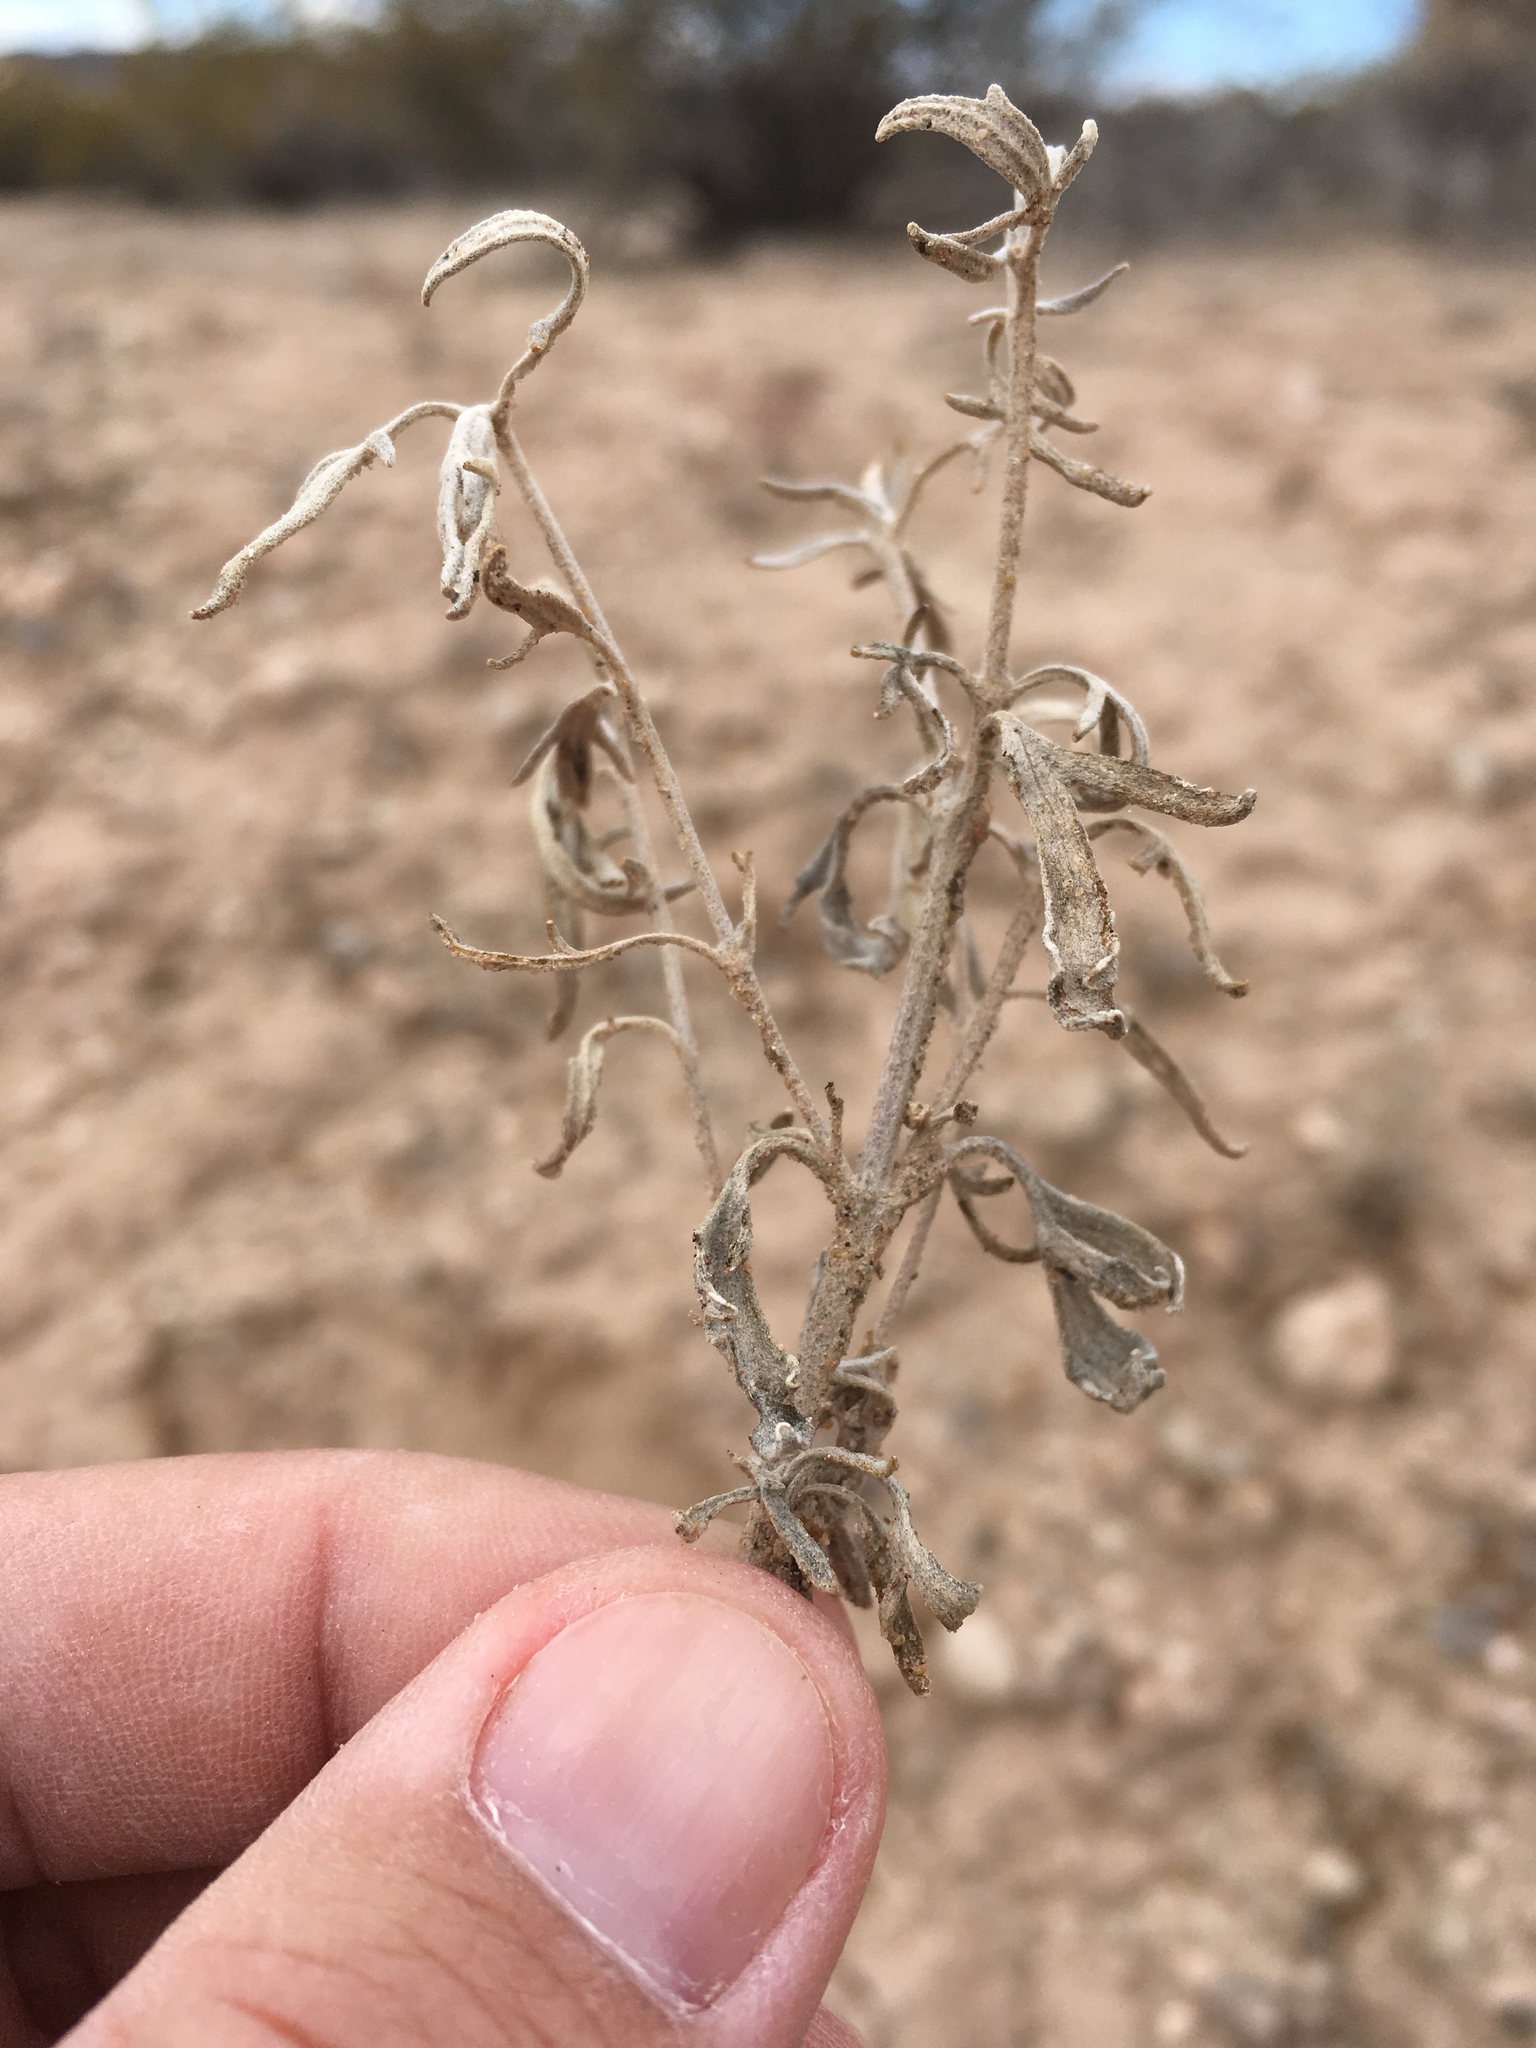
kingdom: Plantae
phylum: Tracheophyta
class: Magnoliopsida
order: Asterales
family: Asteraceae
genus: Picradeniopsis
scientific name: Picradeniopsis absinthifolia
